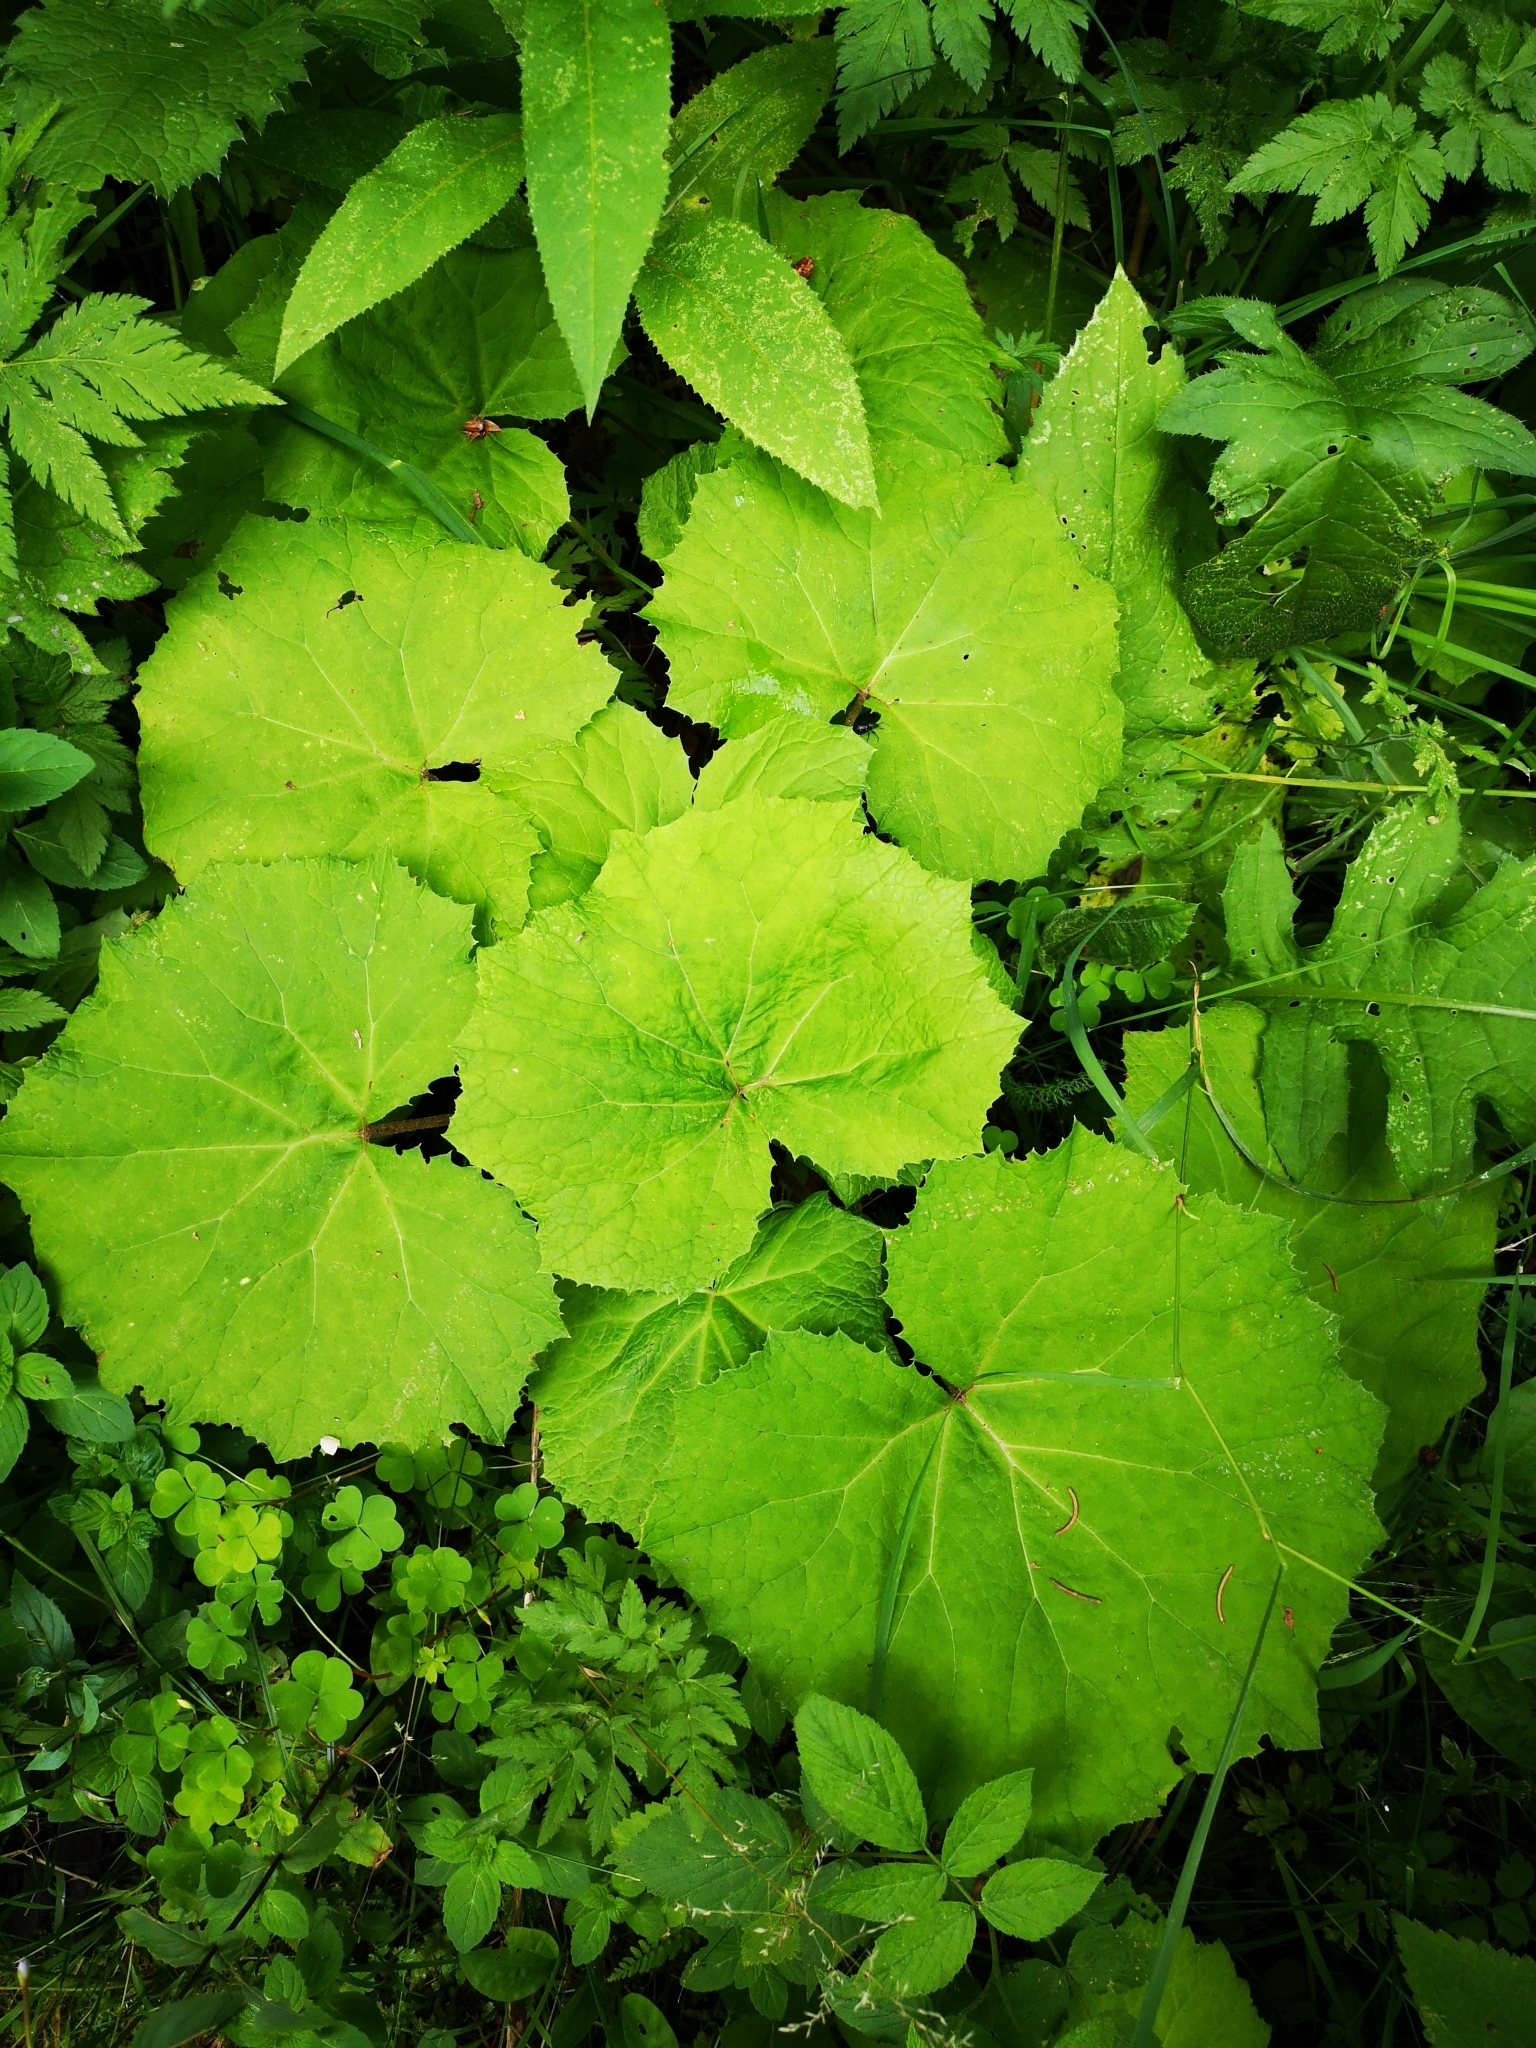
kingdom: Plantae
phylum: Tracheophyta
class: Magnoliopsida
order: Asterales
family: Asteraceae
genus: Petasites
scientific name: Petasites albus
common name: White butterbur
